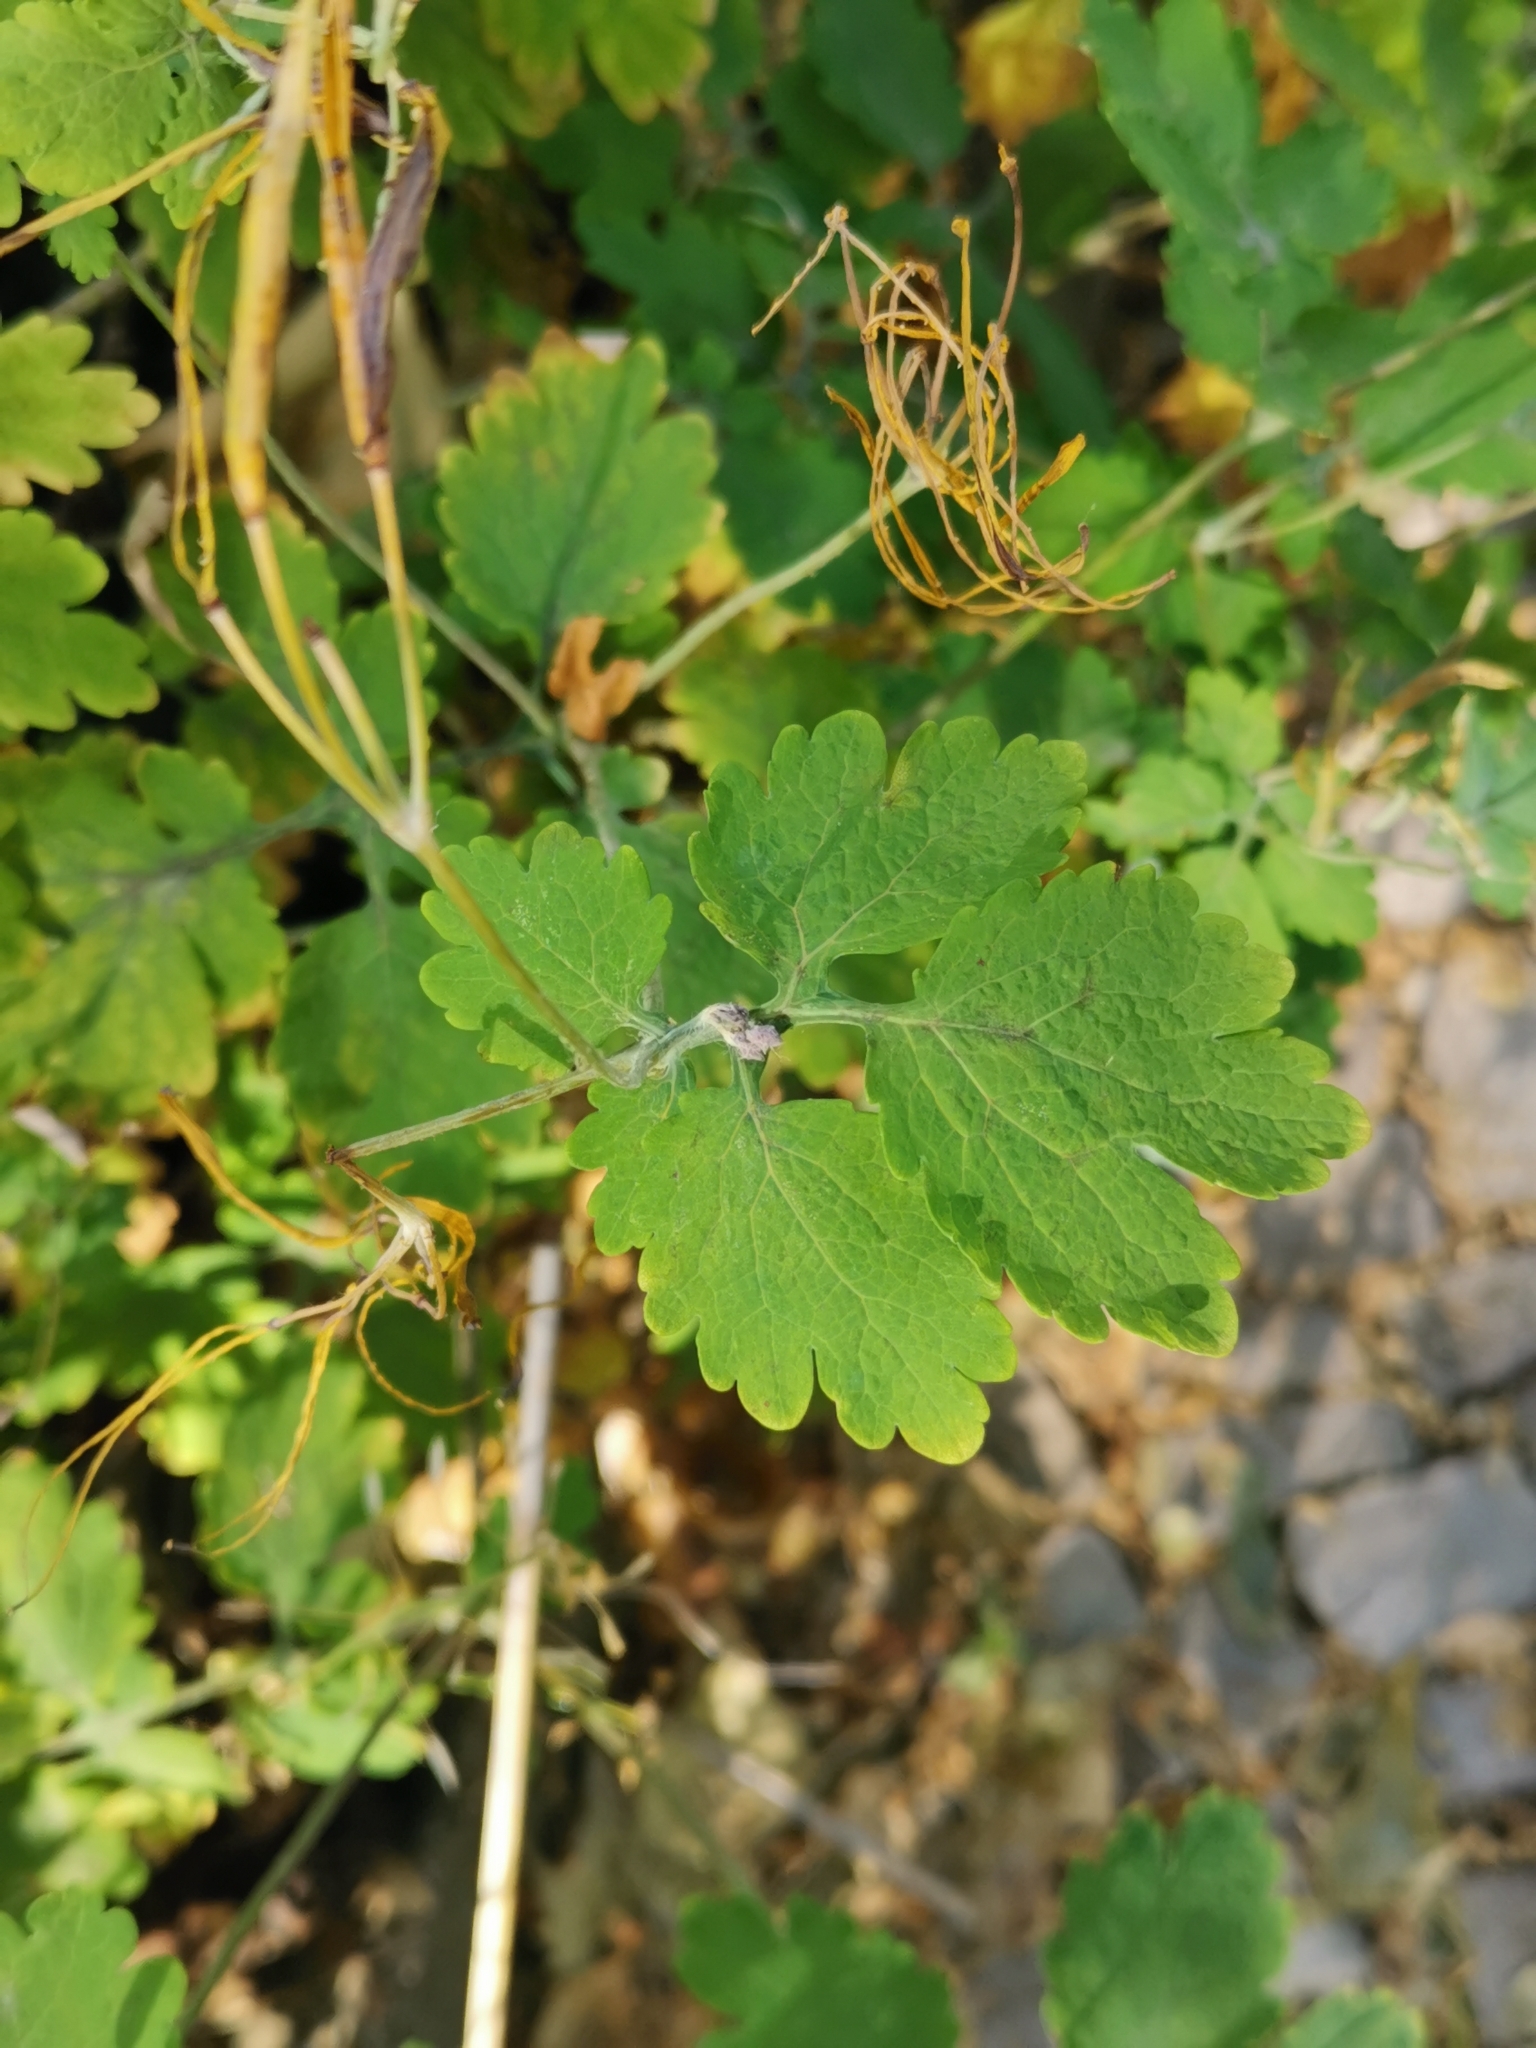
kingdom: Plantae
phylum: Tracheophyta
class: Magnoliopsida
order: Ranunculales
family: Papaveraceae
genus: Chelidonium
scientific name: Chelidonium majus
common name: Greater celandine
